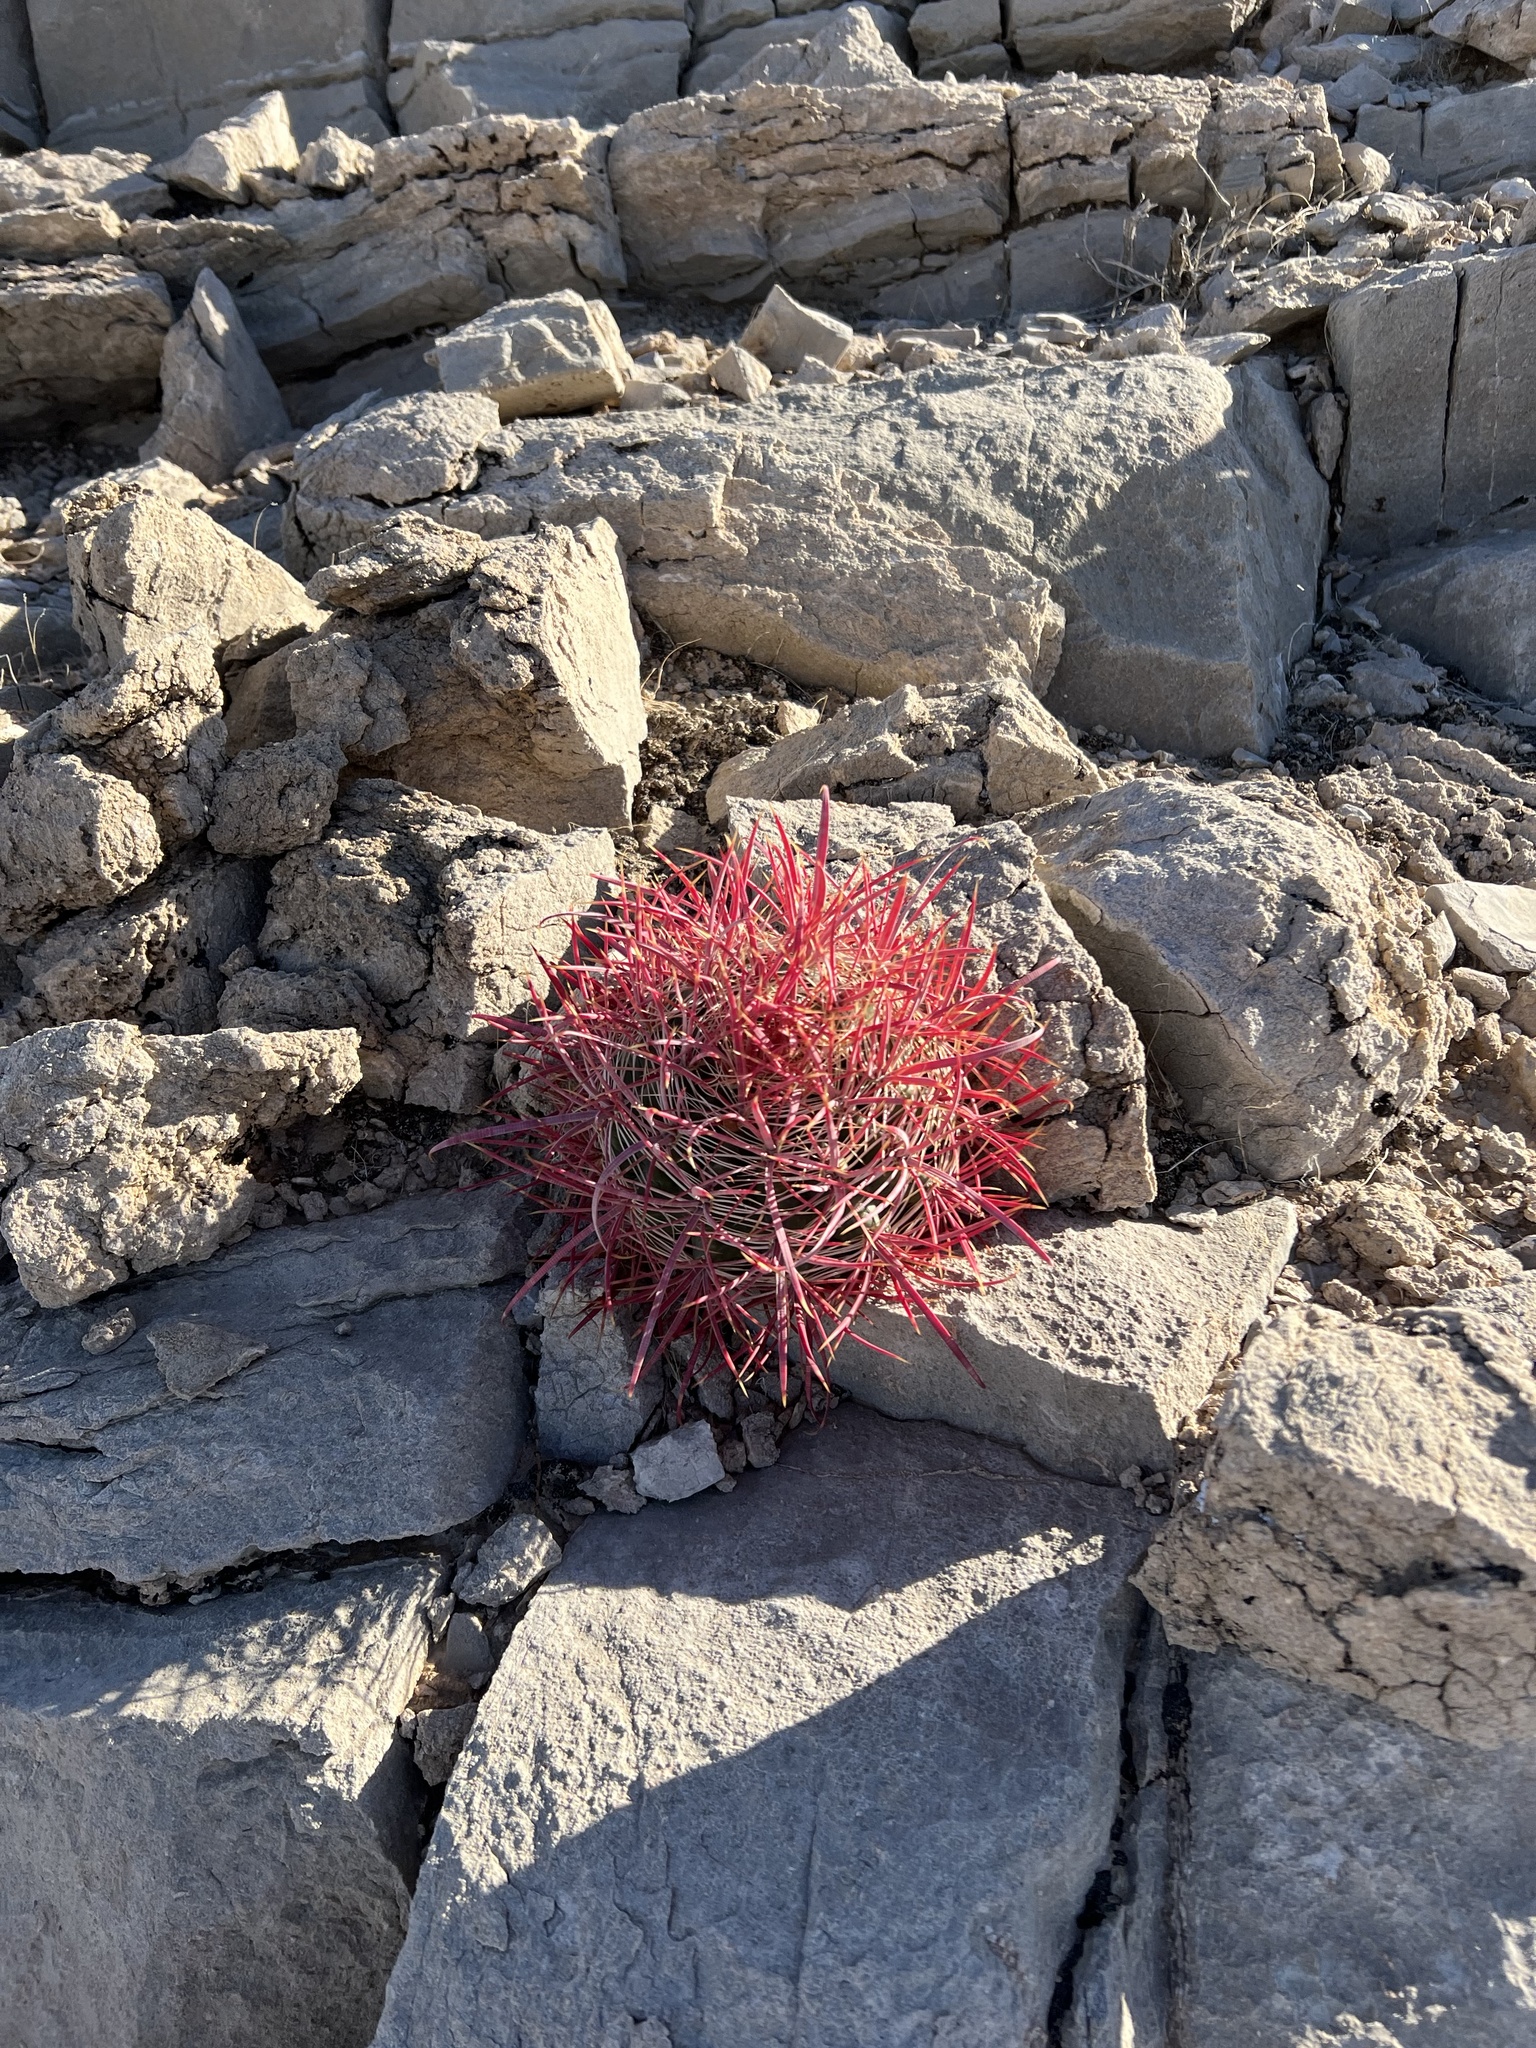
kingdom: Plantae
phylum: Tracheophyta
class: Magnoliopsida
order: Caryophyllales
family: Cactaceae
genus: Ferocactus
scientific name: Ferocactus cylindraceus
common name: California barrel cactus
